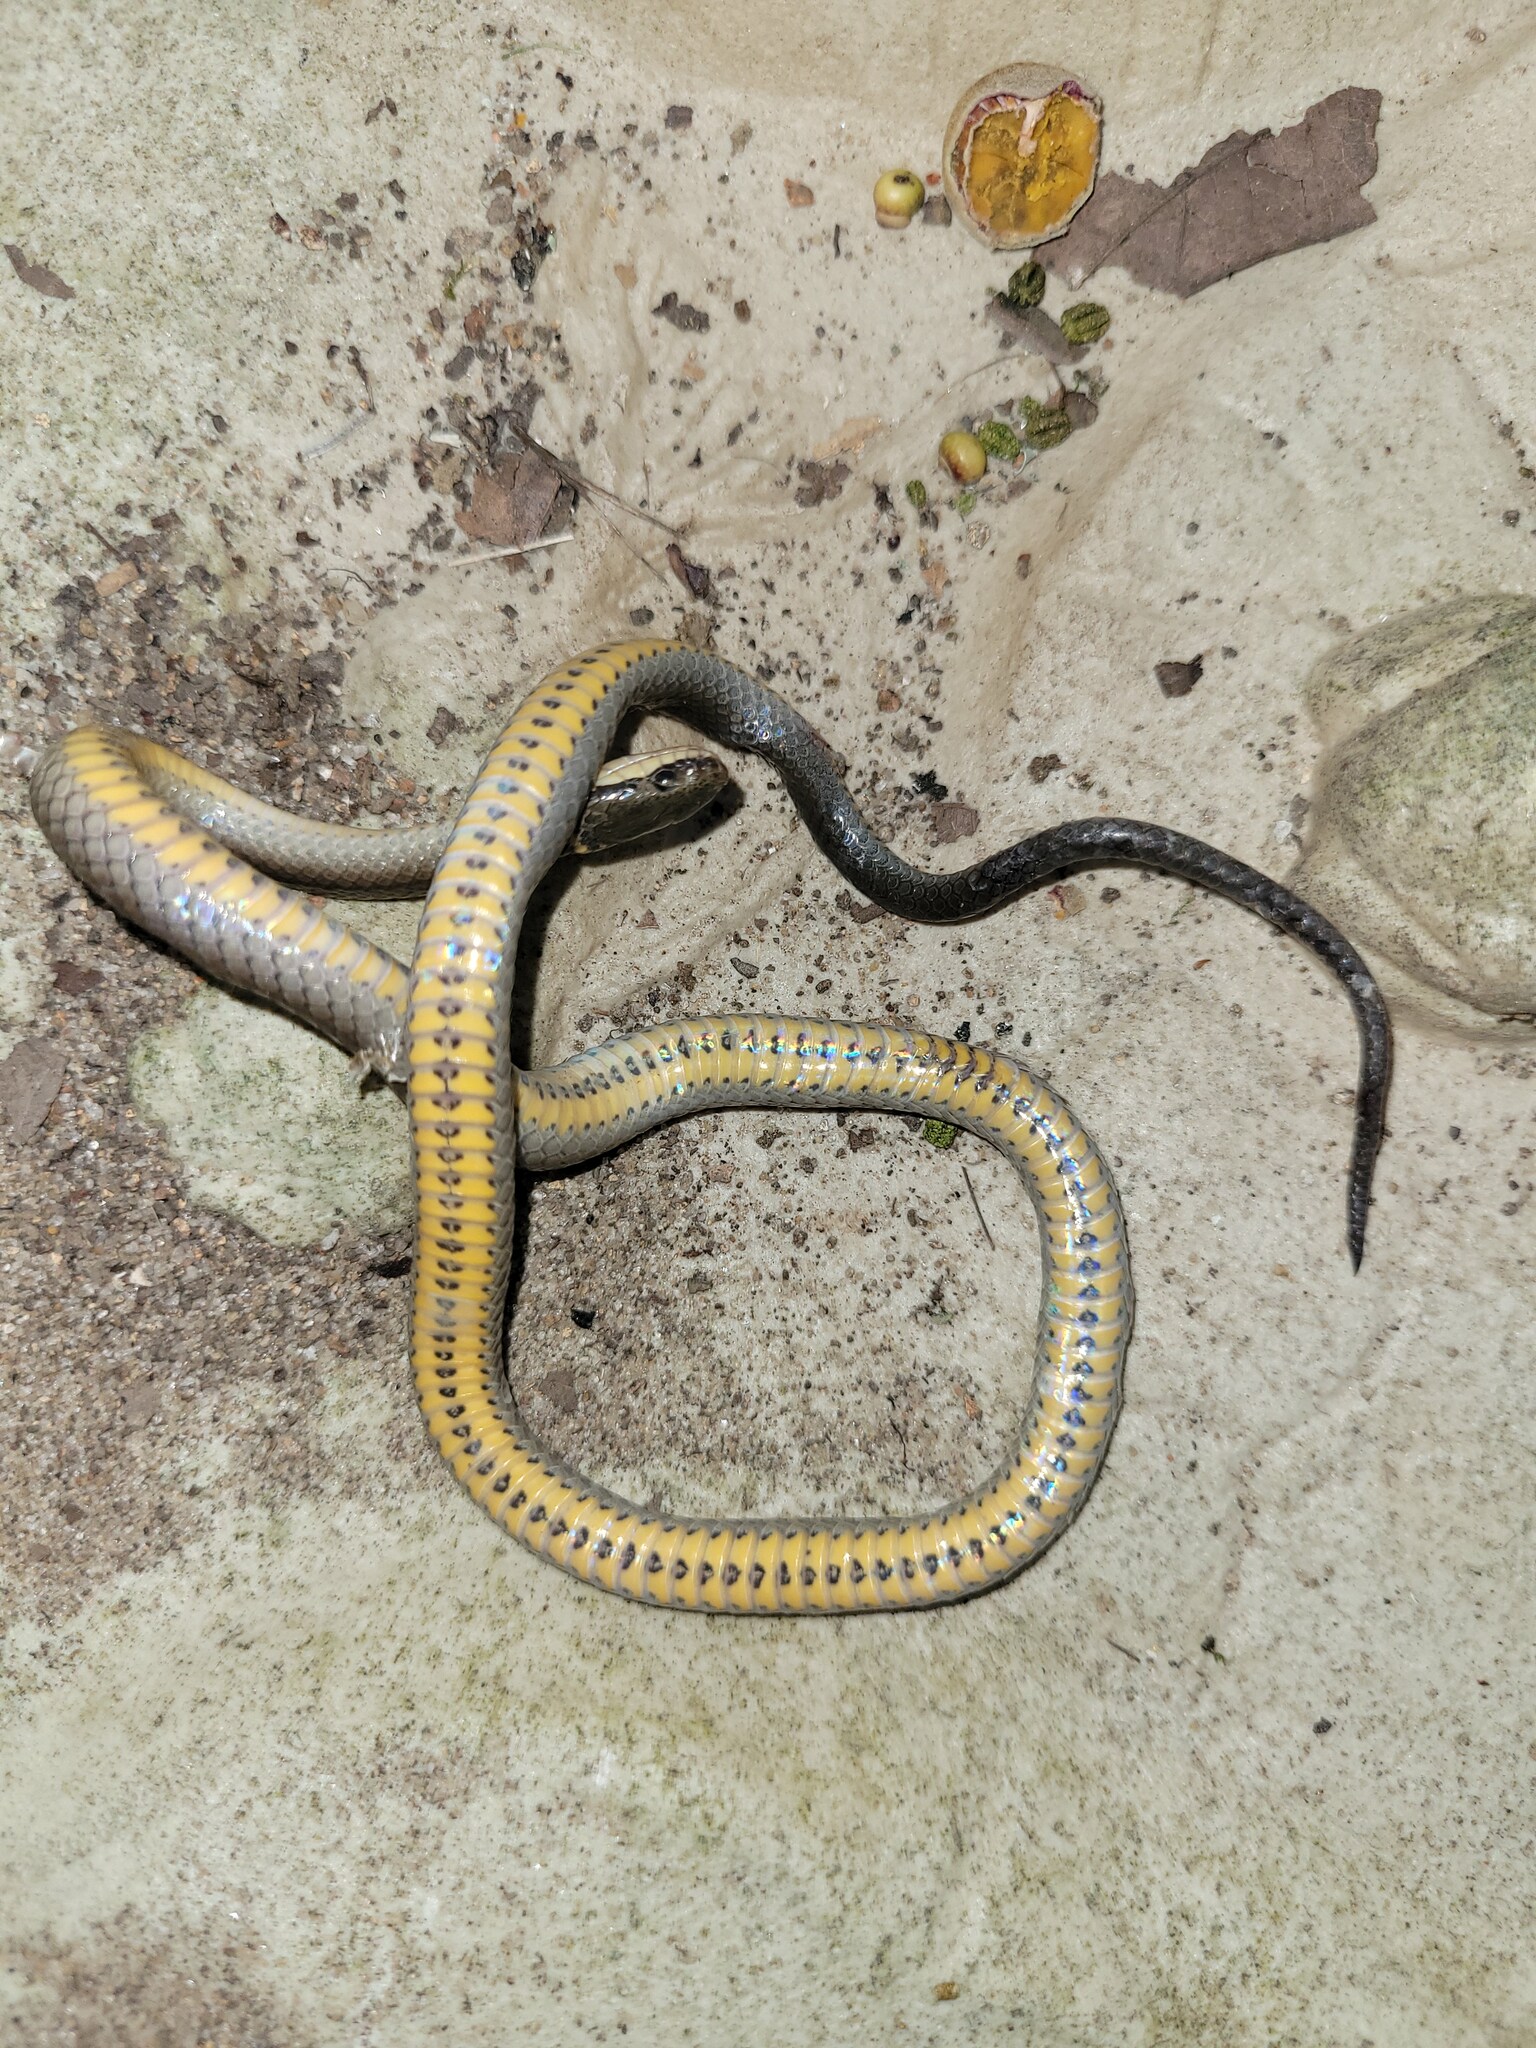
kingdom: Animalia
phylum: Chordata
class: Squamata
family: Colubridae
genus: Diadophis
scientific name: Diadophis punctatus
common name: Ringneck snake
